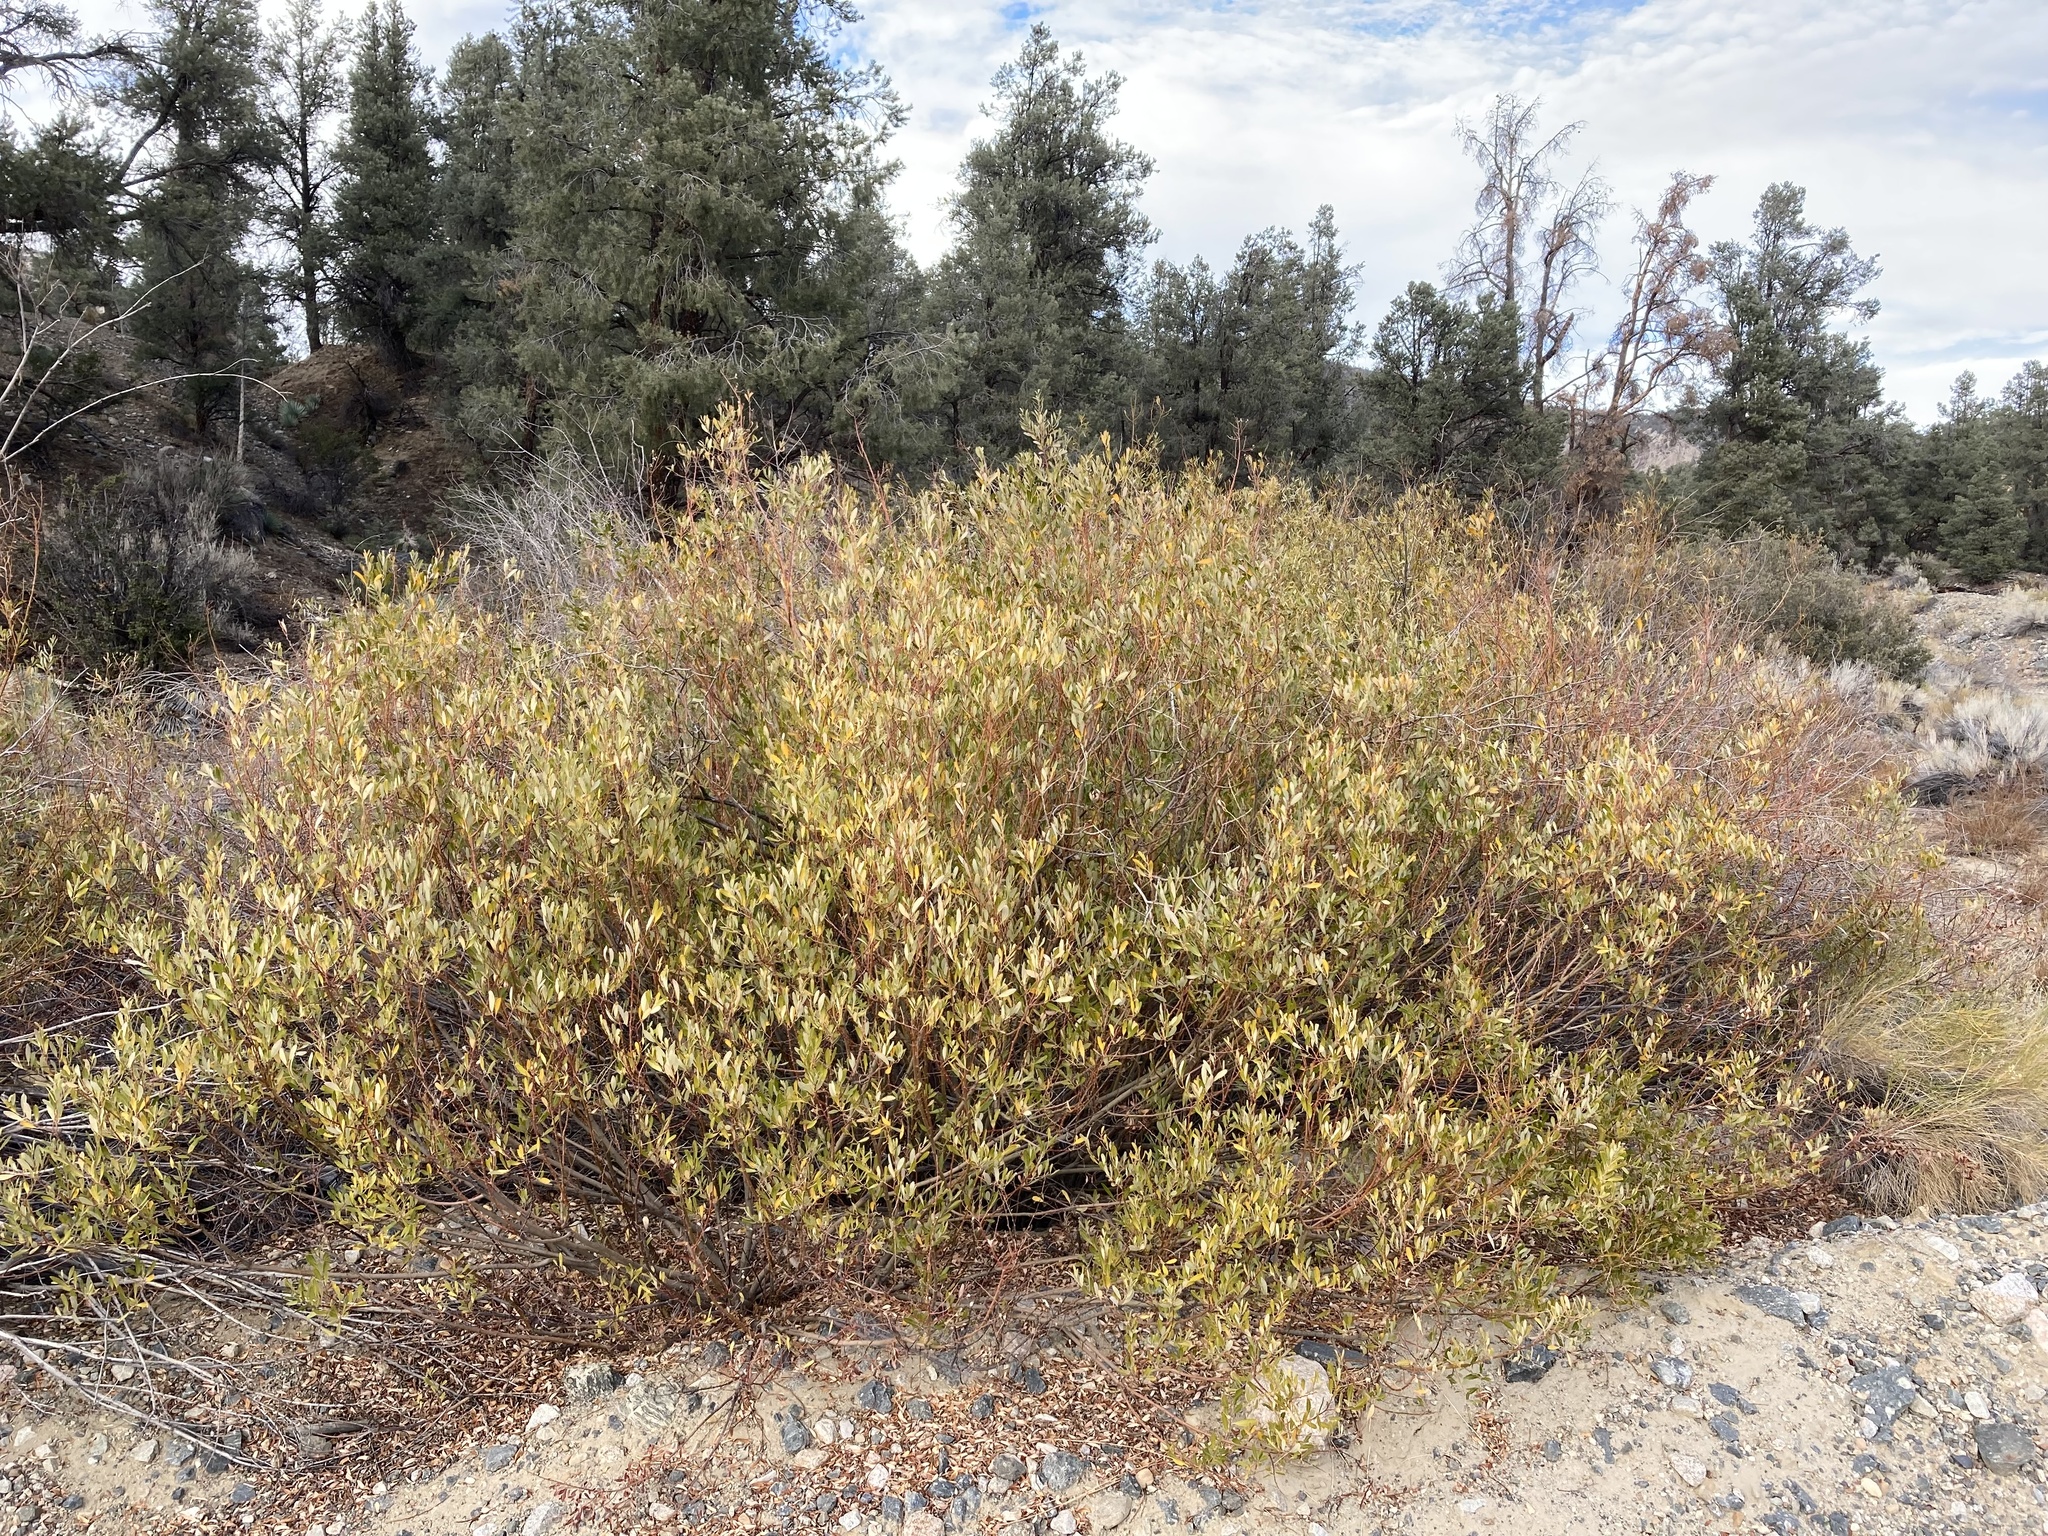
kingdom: Plantae
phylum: Tracheophyta
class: Magnoliopsida
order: Malpighiales
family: Salicaceae
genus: Salix
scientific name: Salix lasiolepis
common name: Arroyo willow
